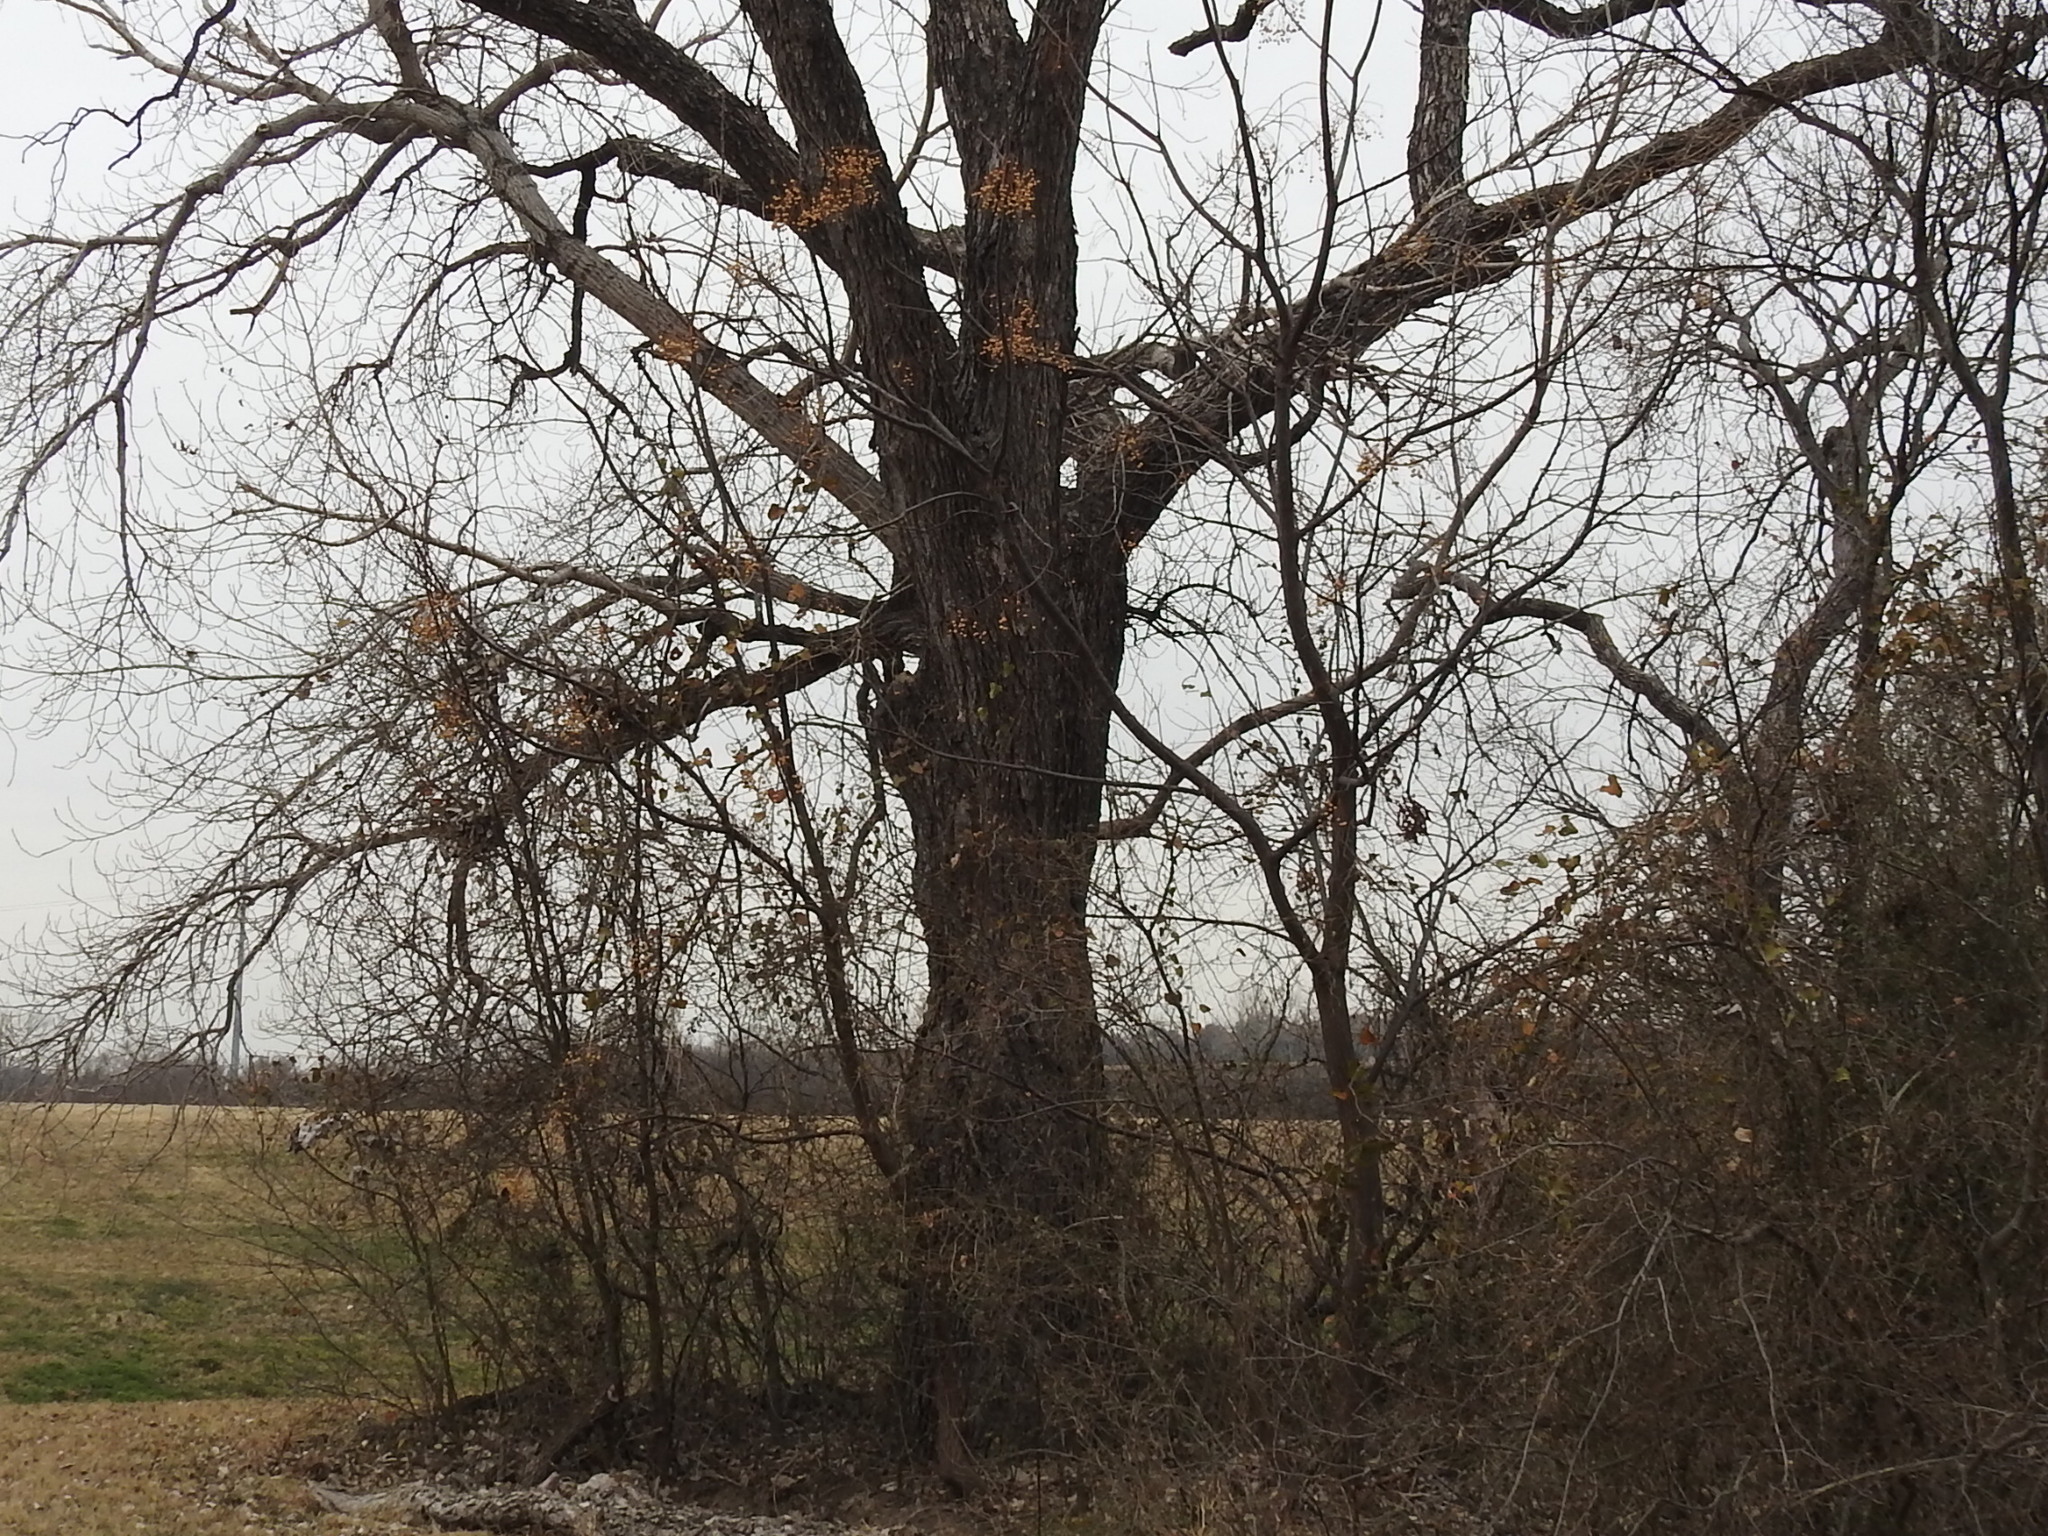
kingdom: Plantae
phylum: Tracheophyta
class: Magnoliopsida
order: Sapindales
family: Meliaceae
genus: Melia
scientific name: Melia azedarach
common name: Chinaberrytree
